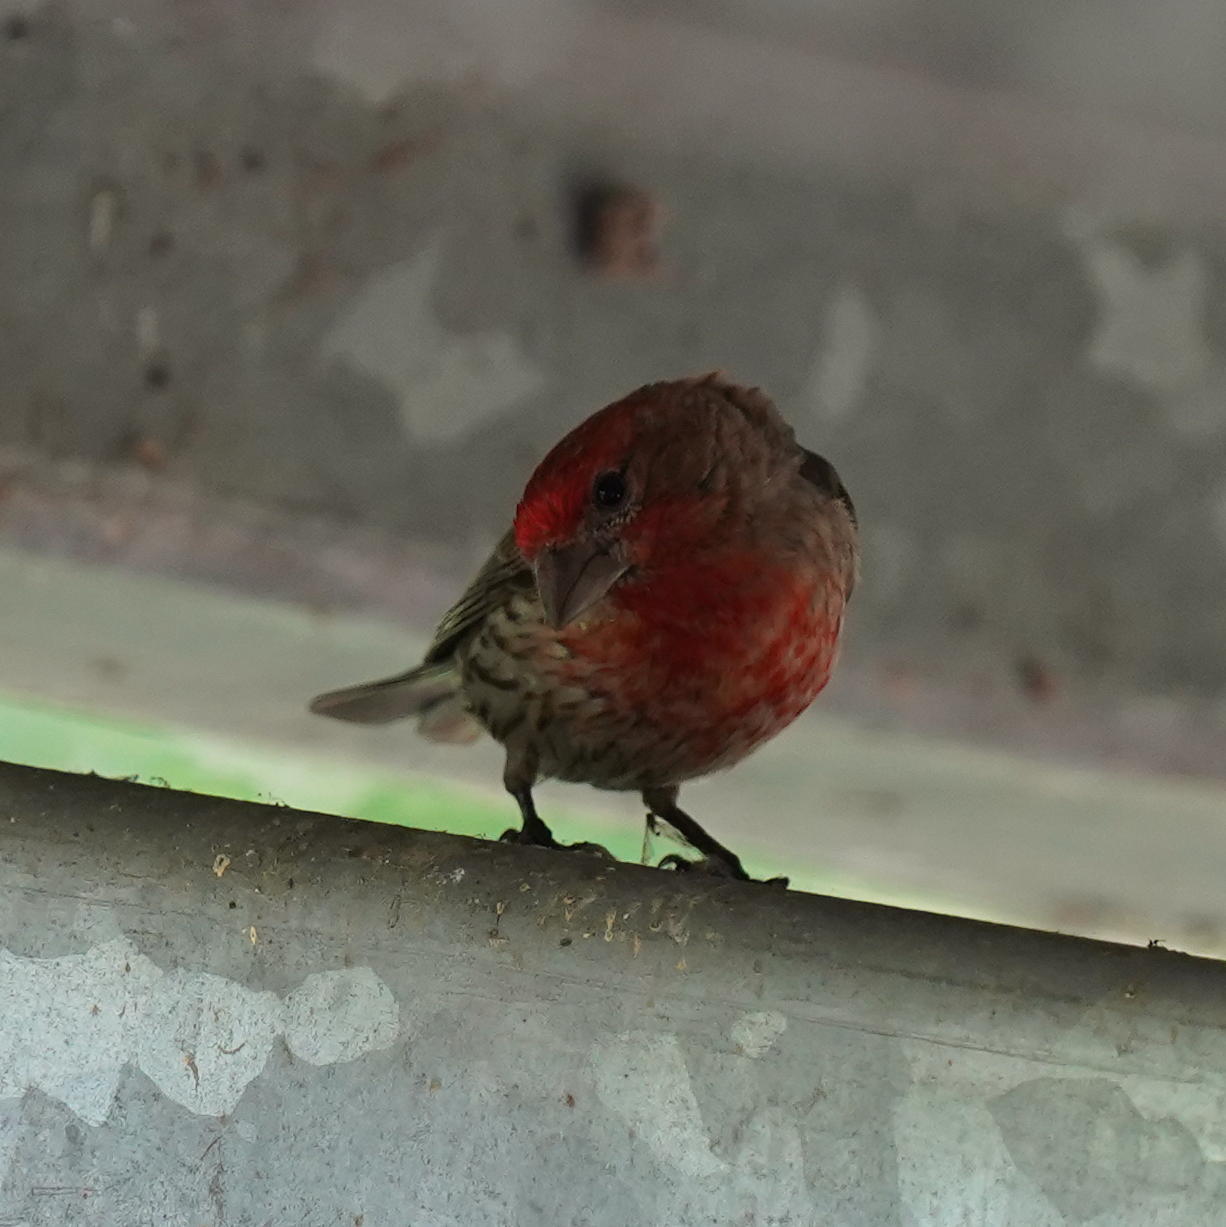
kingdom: Animalia
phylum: Chordata
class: Aves
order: Passeriformes
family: Fringillidae
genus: Haemorhous
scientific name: Haemorhous mexicanus
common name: House finch
